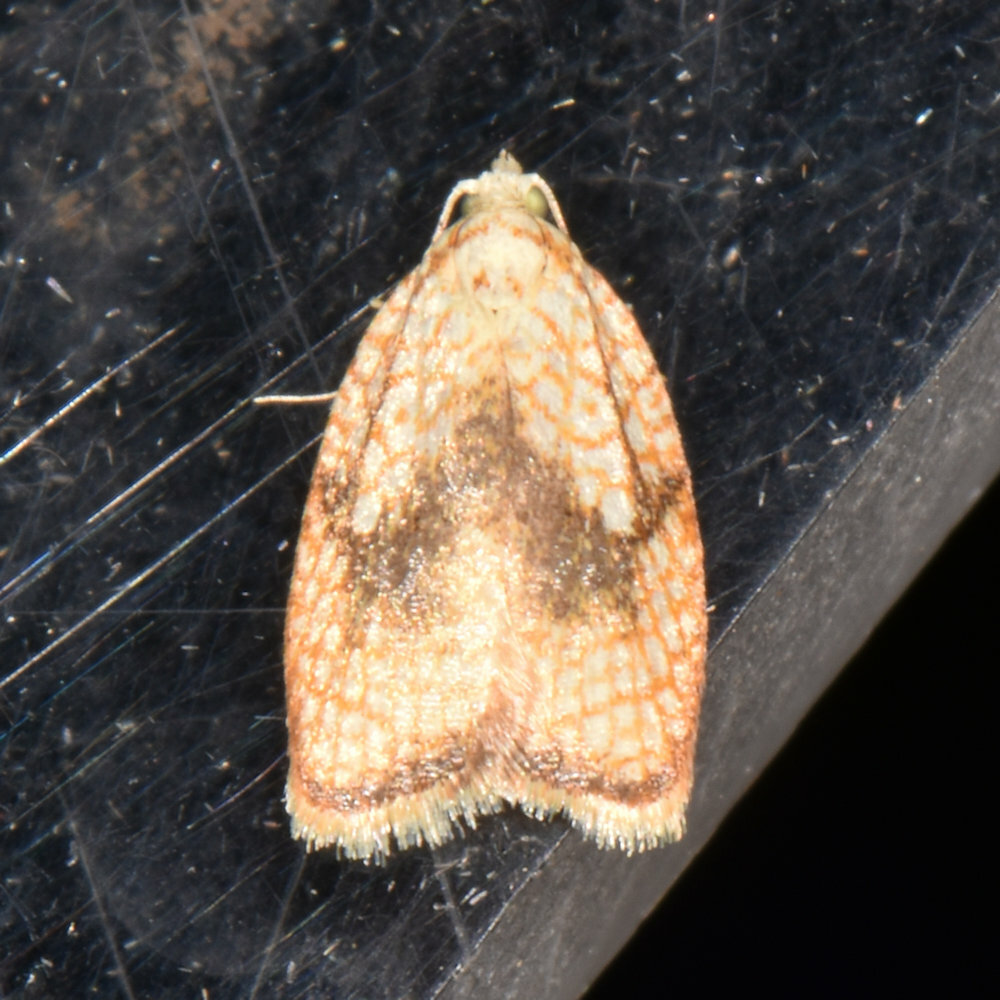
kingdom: Animalia
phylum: Arthropoda
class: Insecta
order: Lepidoptera
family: Tortricidae
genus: Acleris
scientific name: Acleris forsskaleana
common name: Maple button
